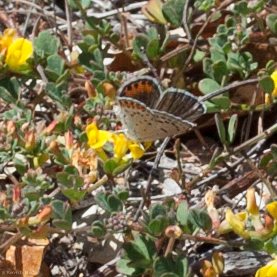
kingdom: Animalia
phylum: Arthropoda
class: Insecta
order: Lepidoptera
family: Lycaenidae
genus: Icaricia
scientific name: Icaricia acmon
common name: Acmon blue
